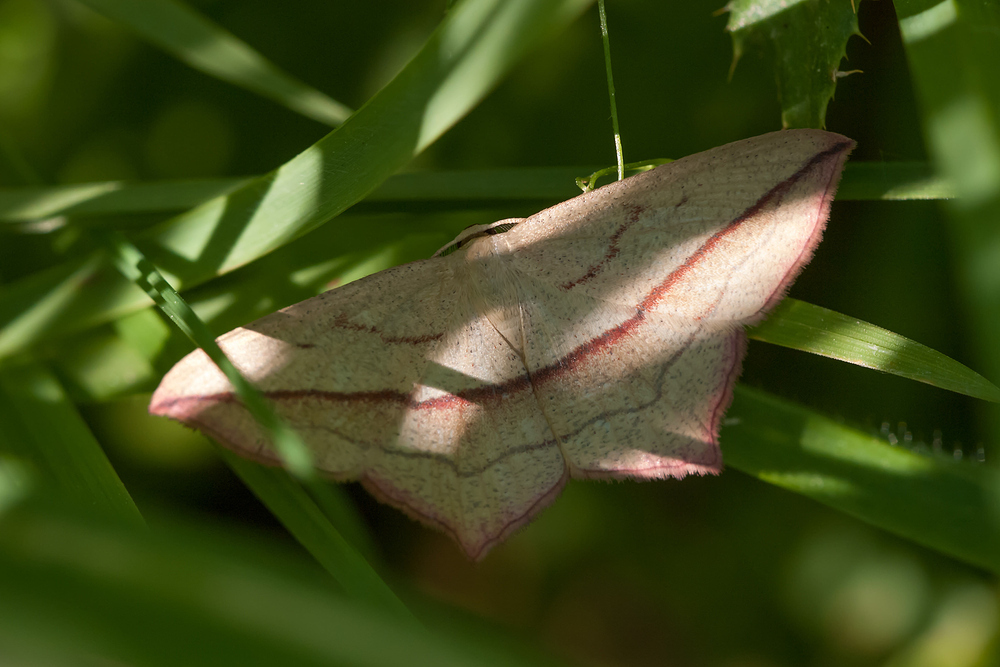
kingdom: Animalia
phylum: Arthropoda
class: Insecta
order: Lepidoptera
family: Geometridae
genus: Timandra
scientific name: Timandra comae
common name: Blood-vein
